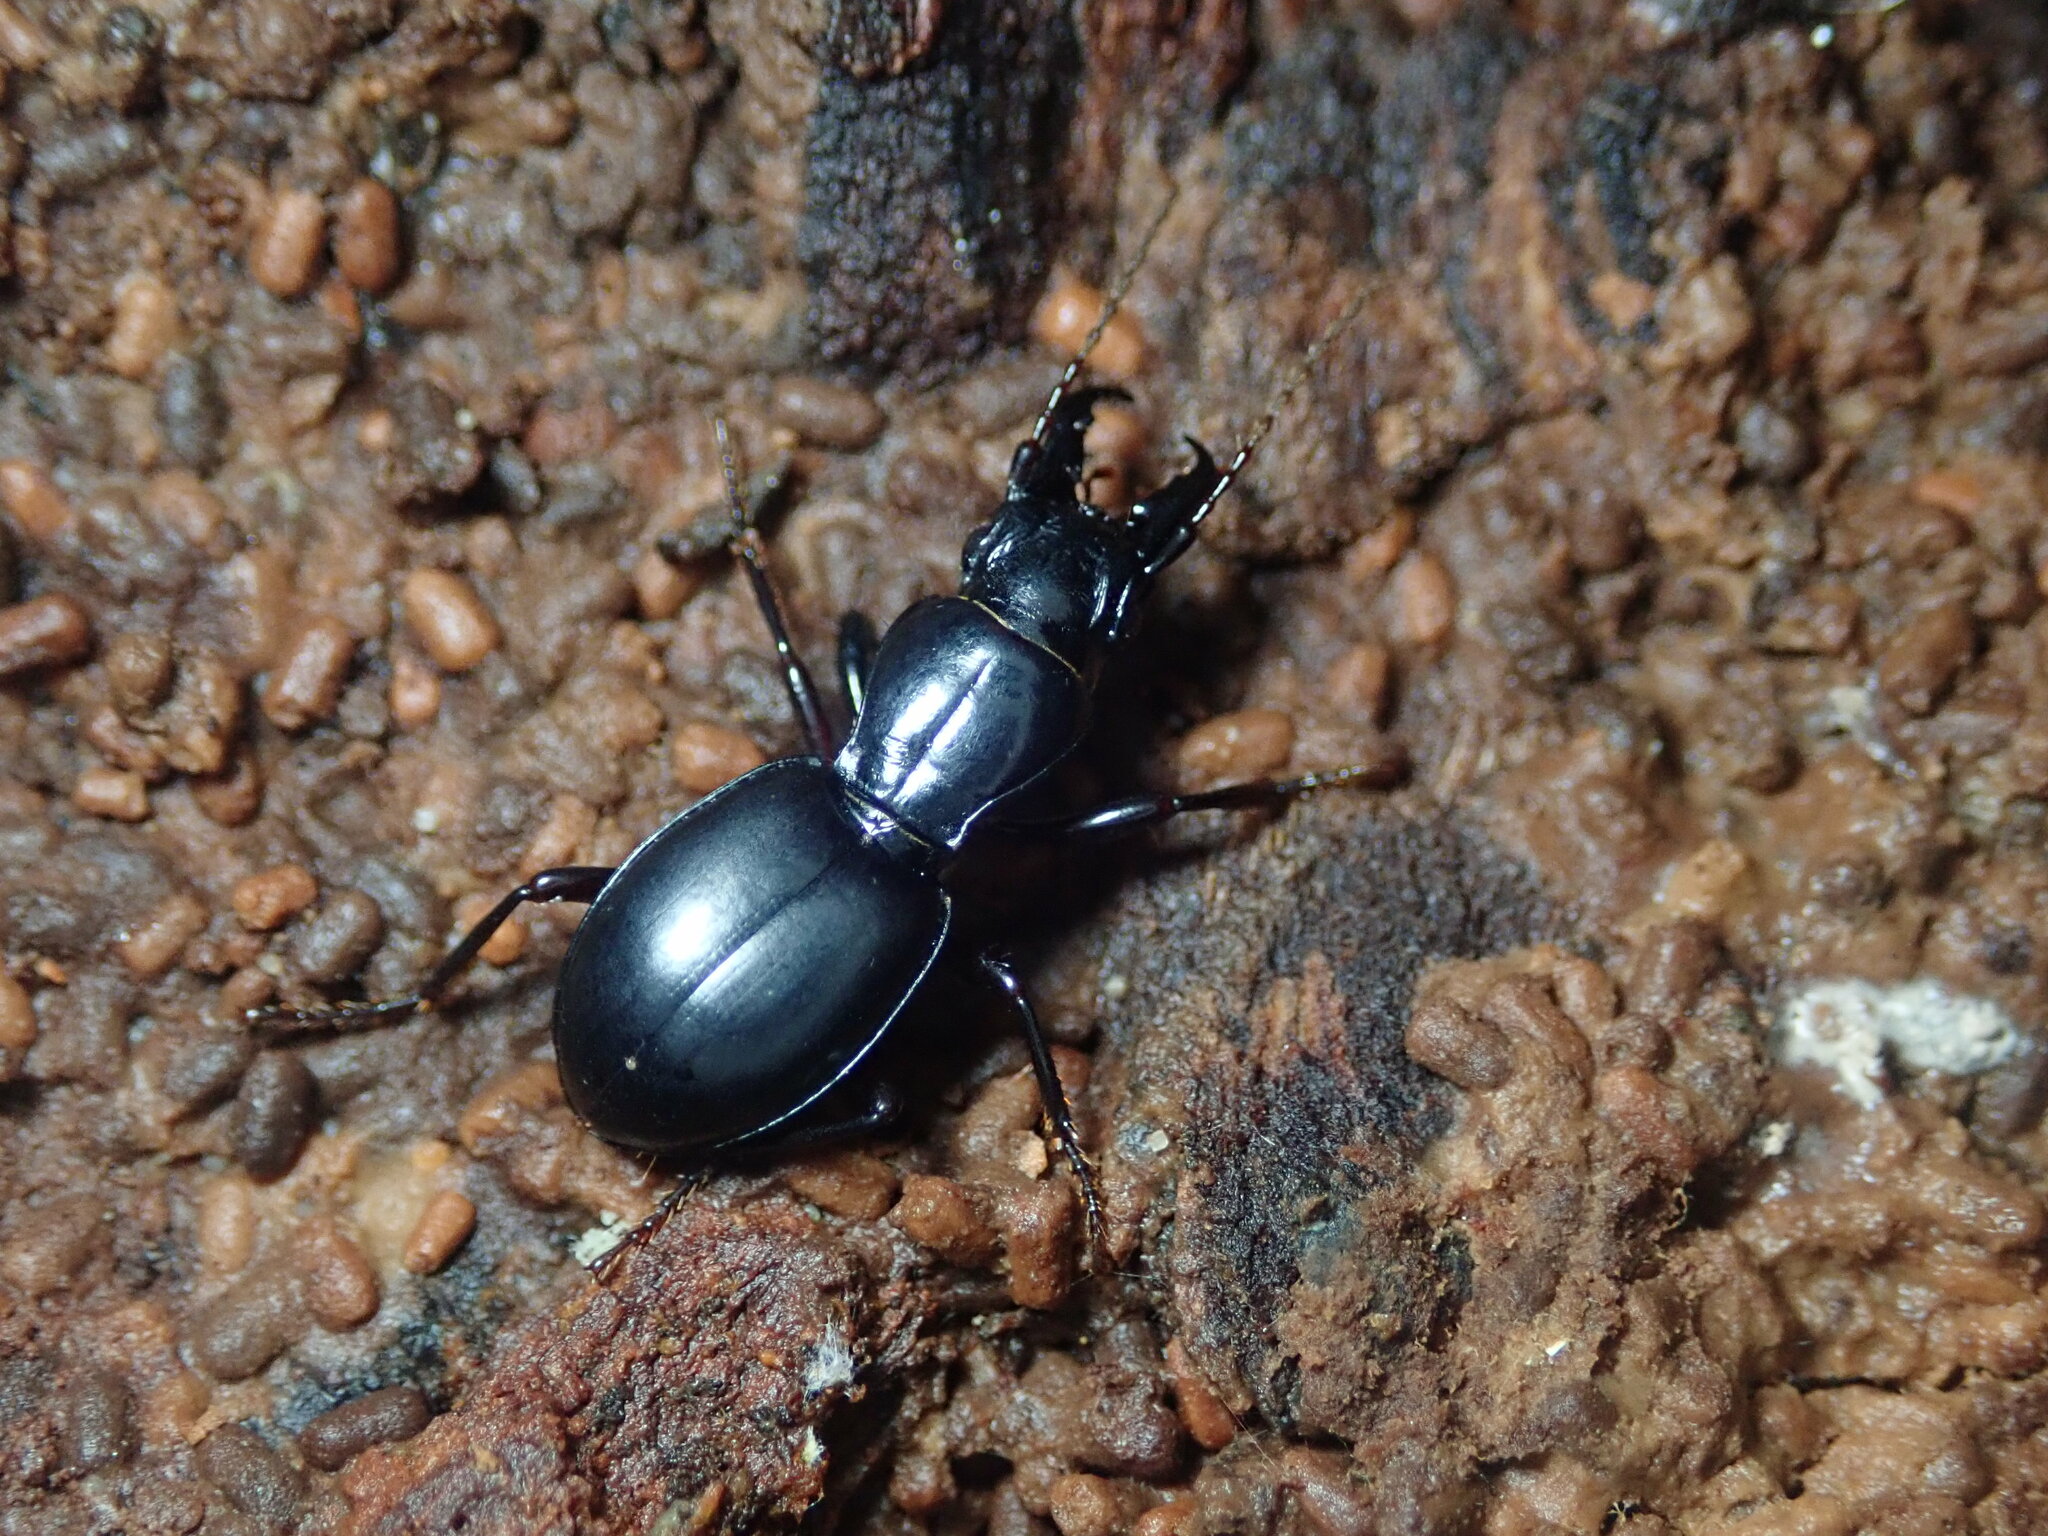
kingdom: Animalia
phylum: Arthropoda
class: Insecta
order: Coleoptera
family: Carabidae
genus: Promecognathus
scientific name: Promecognathus crassus
